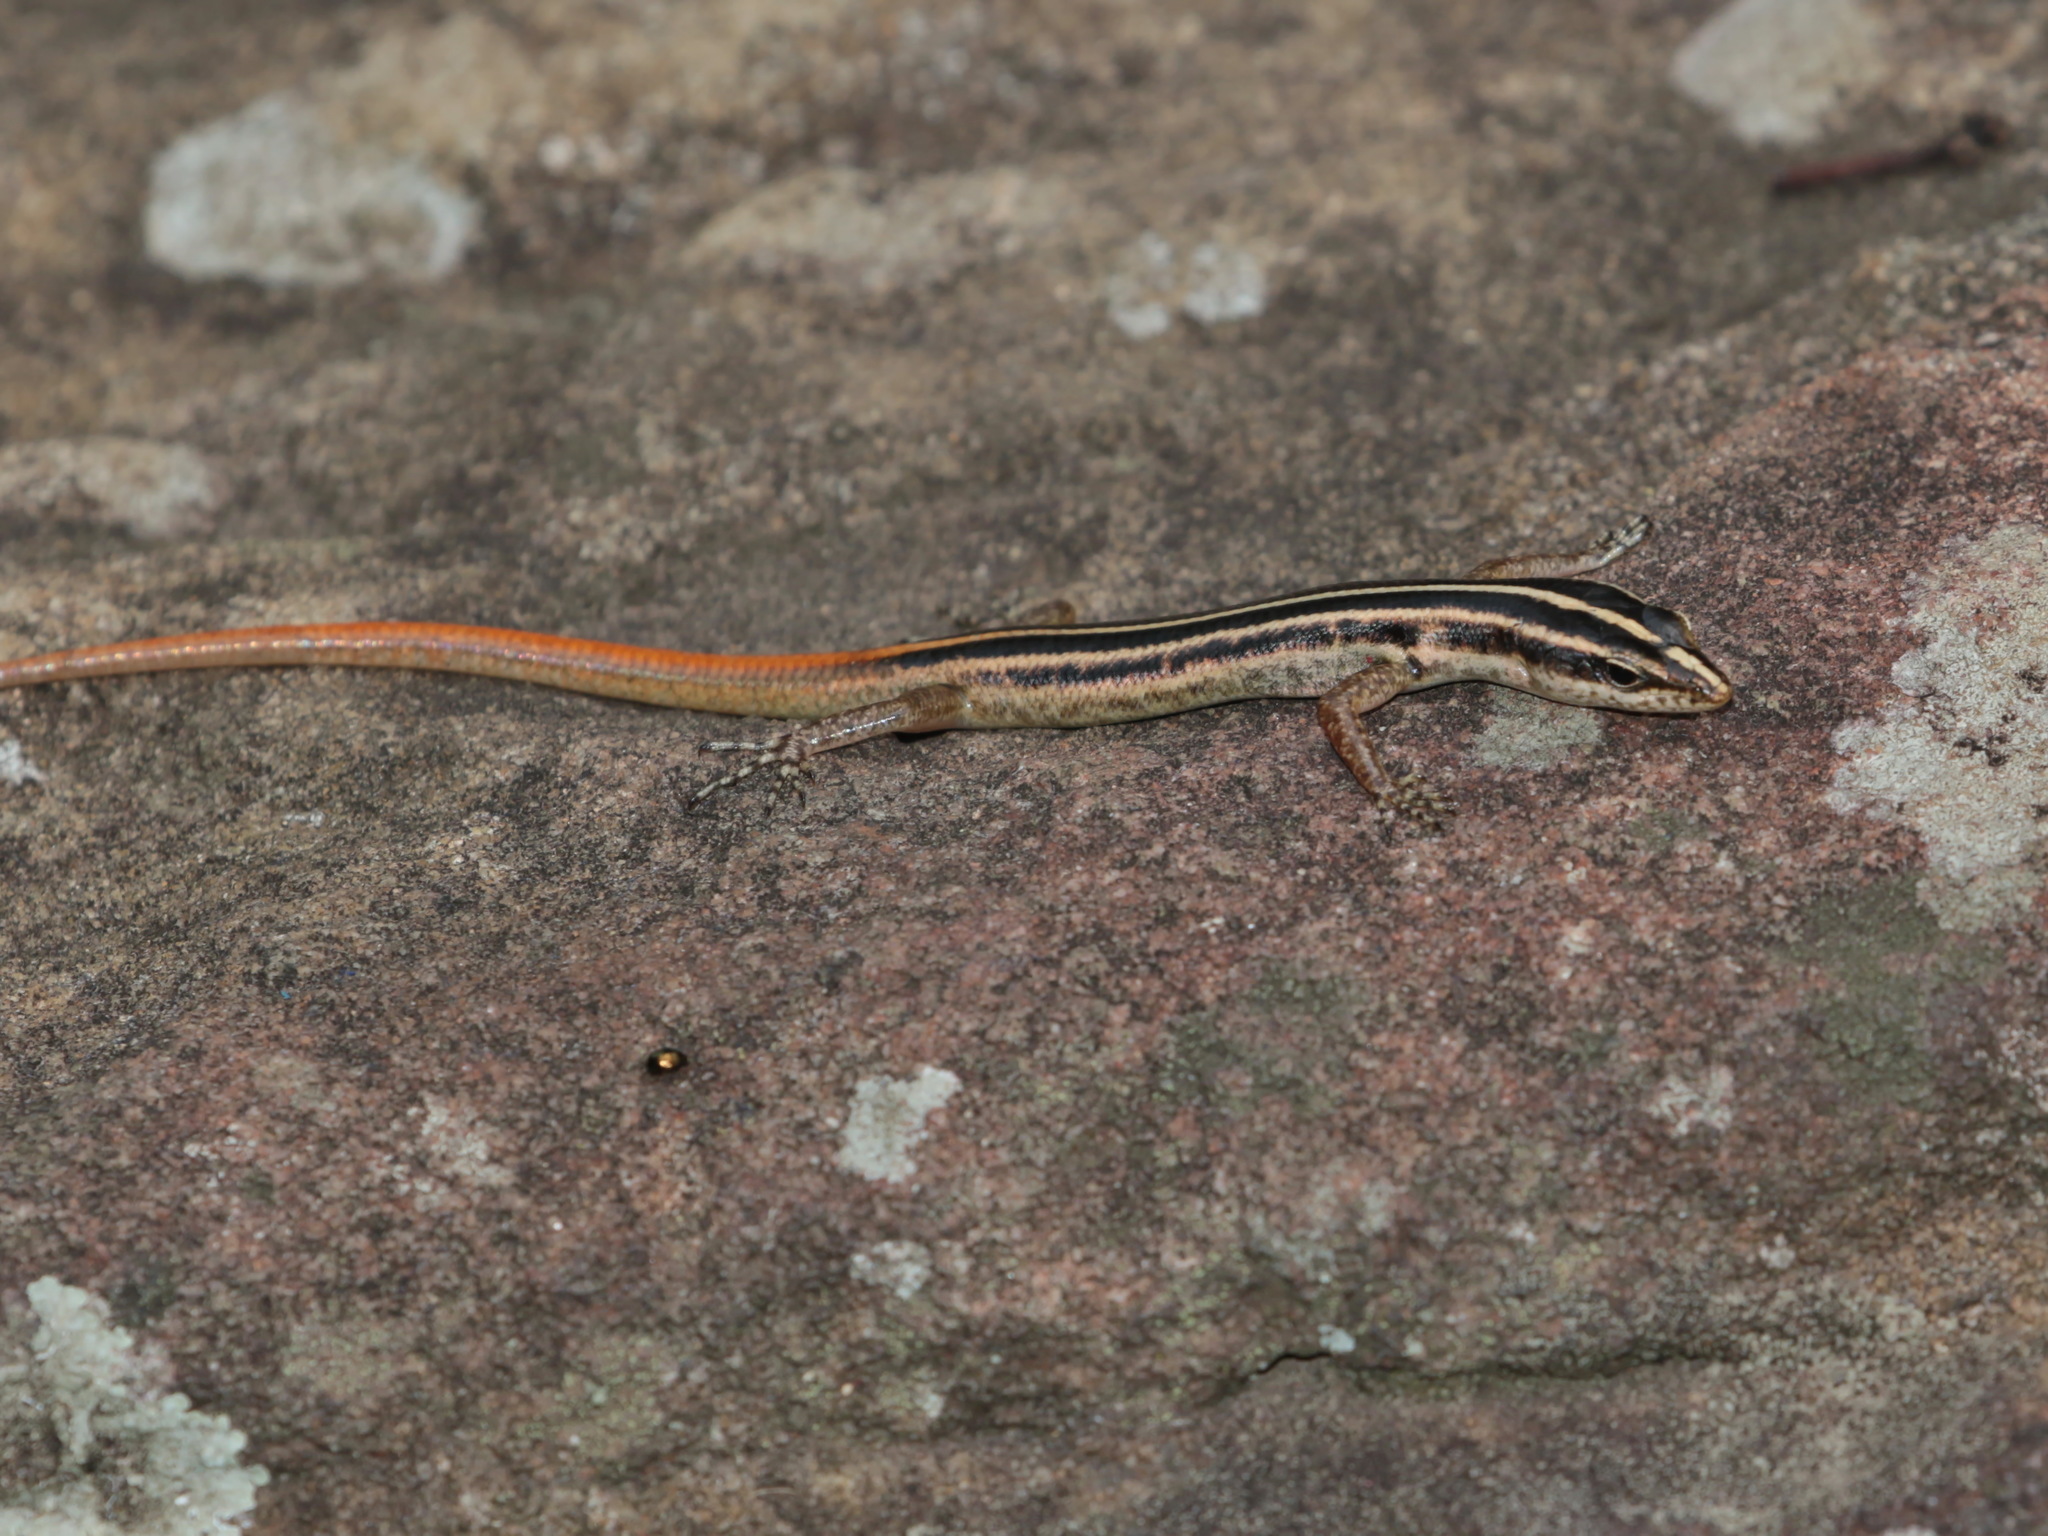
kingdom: Animalia
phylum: Chordata
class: Squamata
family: Scincidae
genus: Lipinia
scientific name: Lipinia microcerca
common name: Banded lipinia
